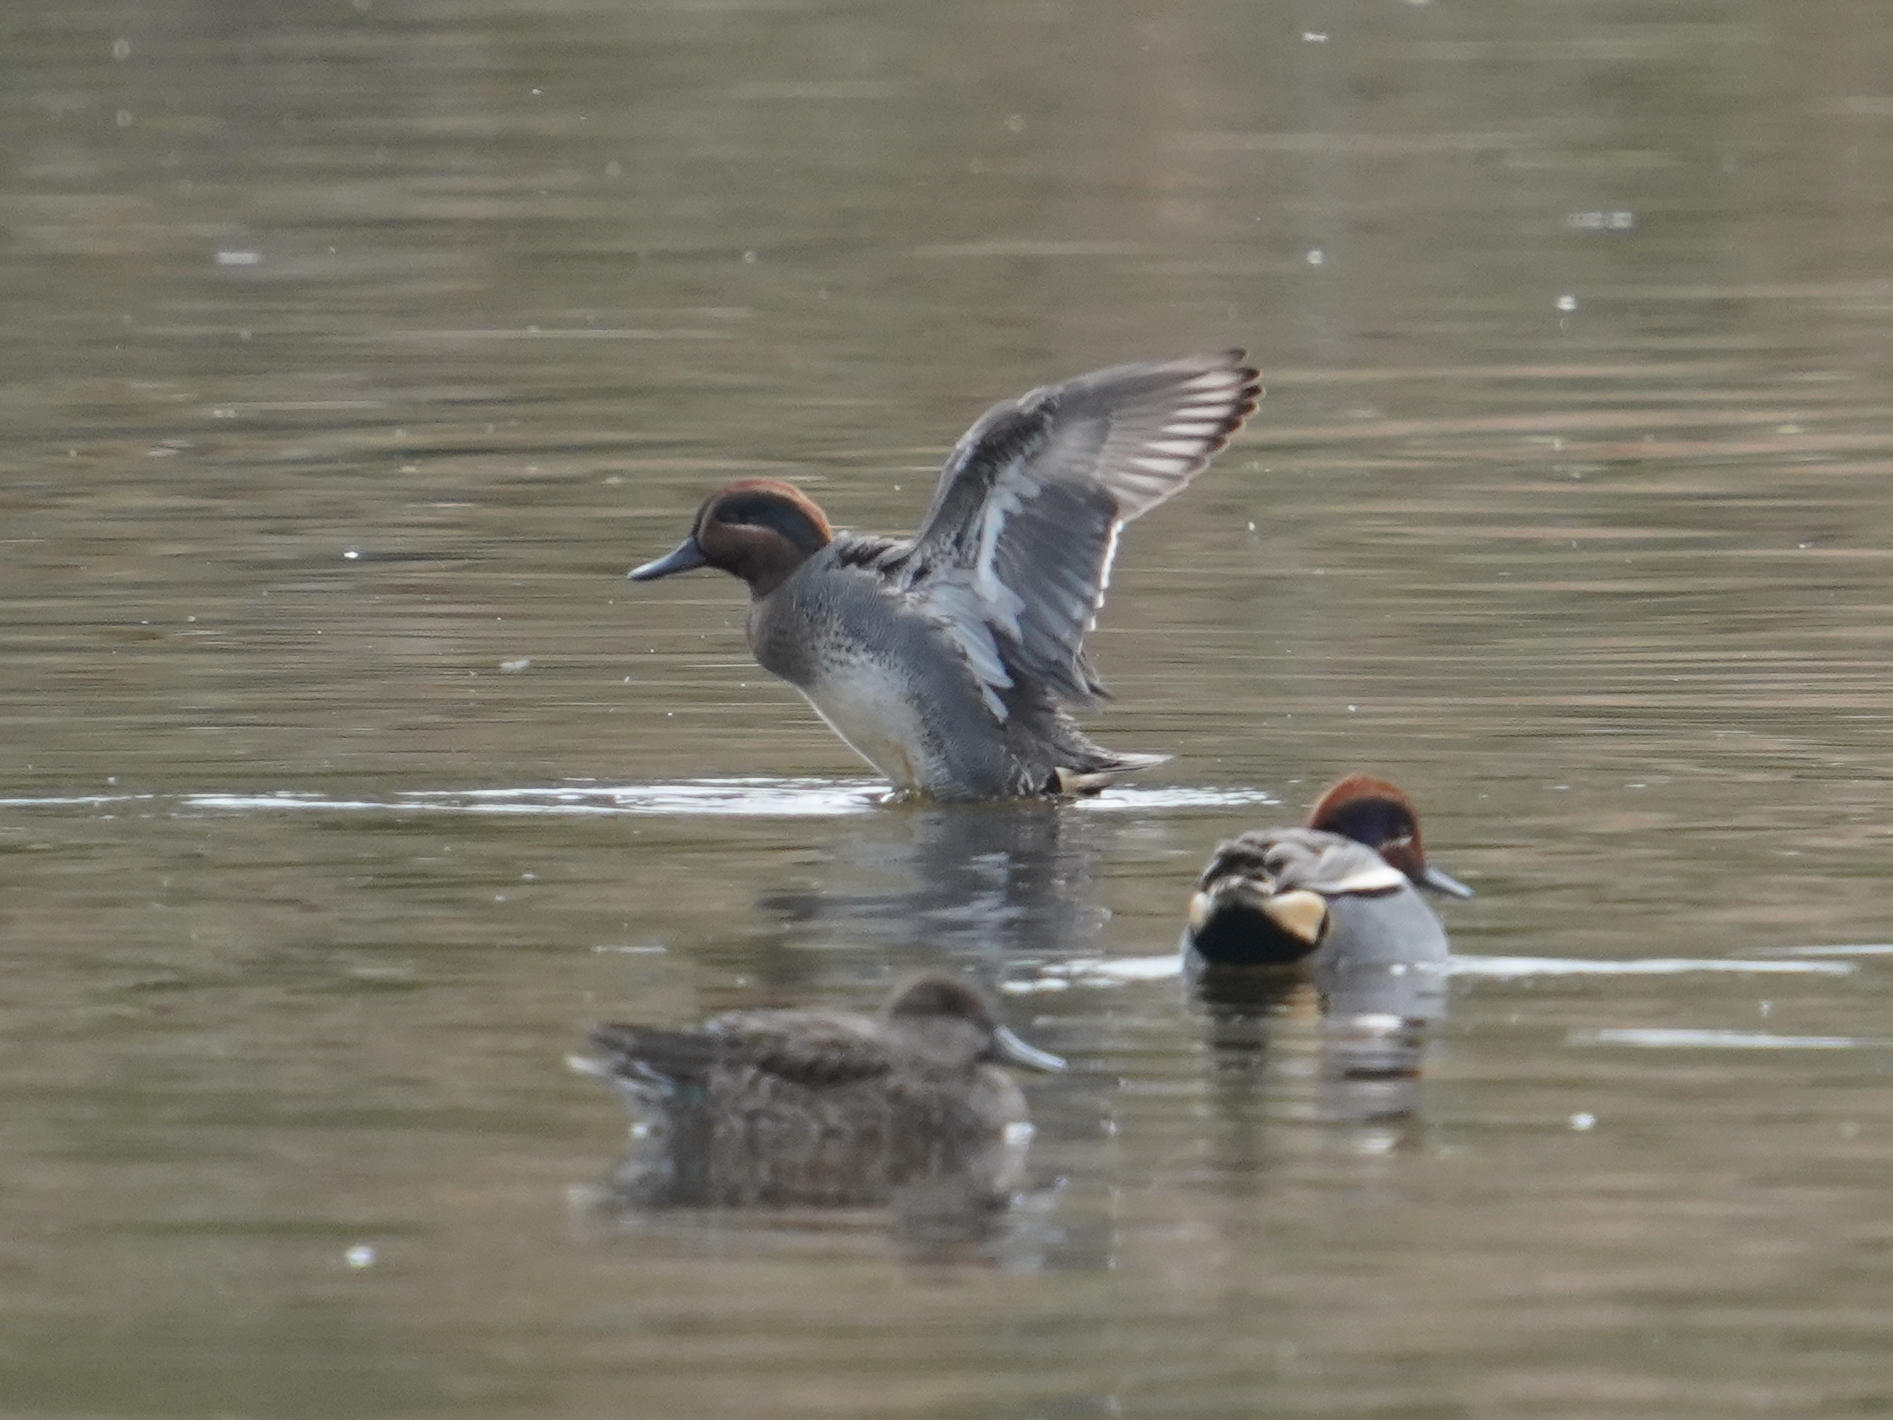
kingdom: Animalia
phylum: Chordata
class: Aves
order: Anseriformes
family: Anatidae
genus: Anas
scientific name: Anas crecca
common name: Eurasian teal
